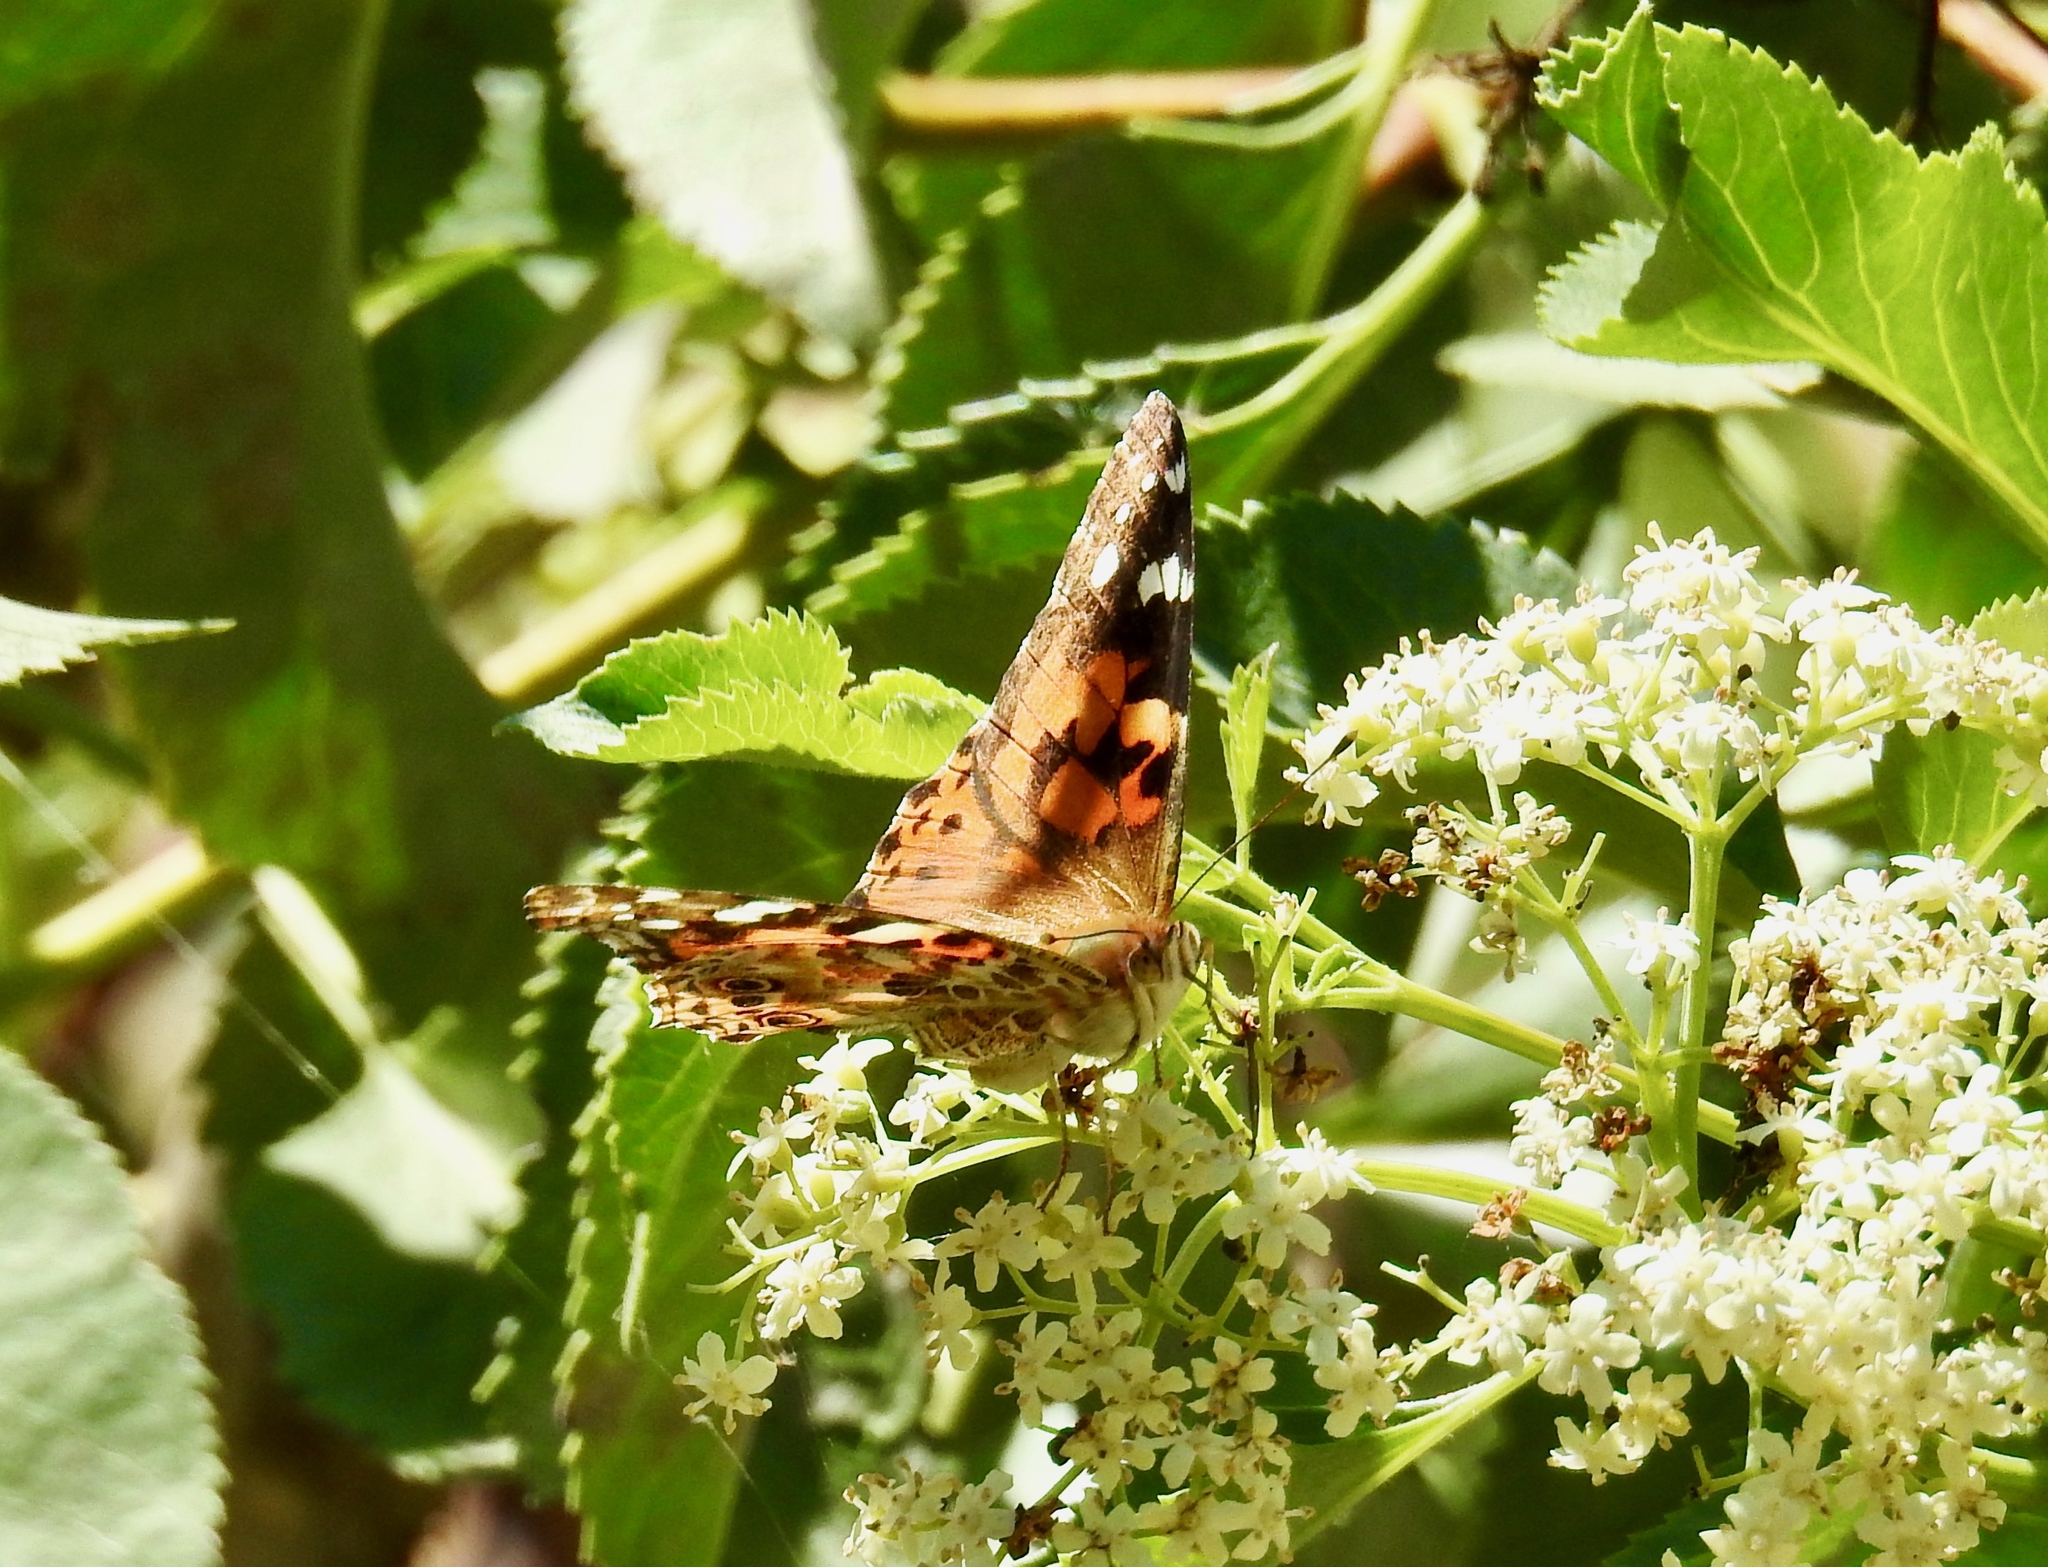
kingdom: Animalia
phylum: Arthropoda
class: Insecta
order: Lepidoptera
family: Nymphalidae
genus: Vanessa
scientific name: Vanessa cardui
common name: Painted lady
